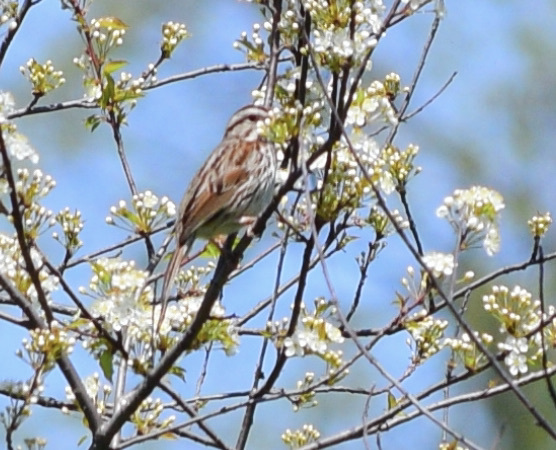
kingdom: Animalia
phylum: Chordata
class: Aves
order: Passeriformes
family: Passerellidae
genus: Melospiza
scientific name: Melospiza melodia
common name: Song sparrow
